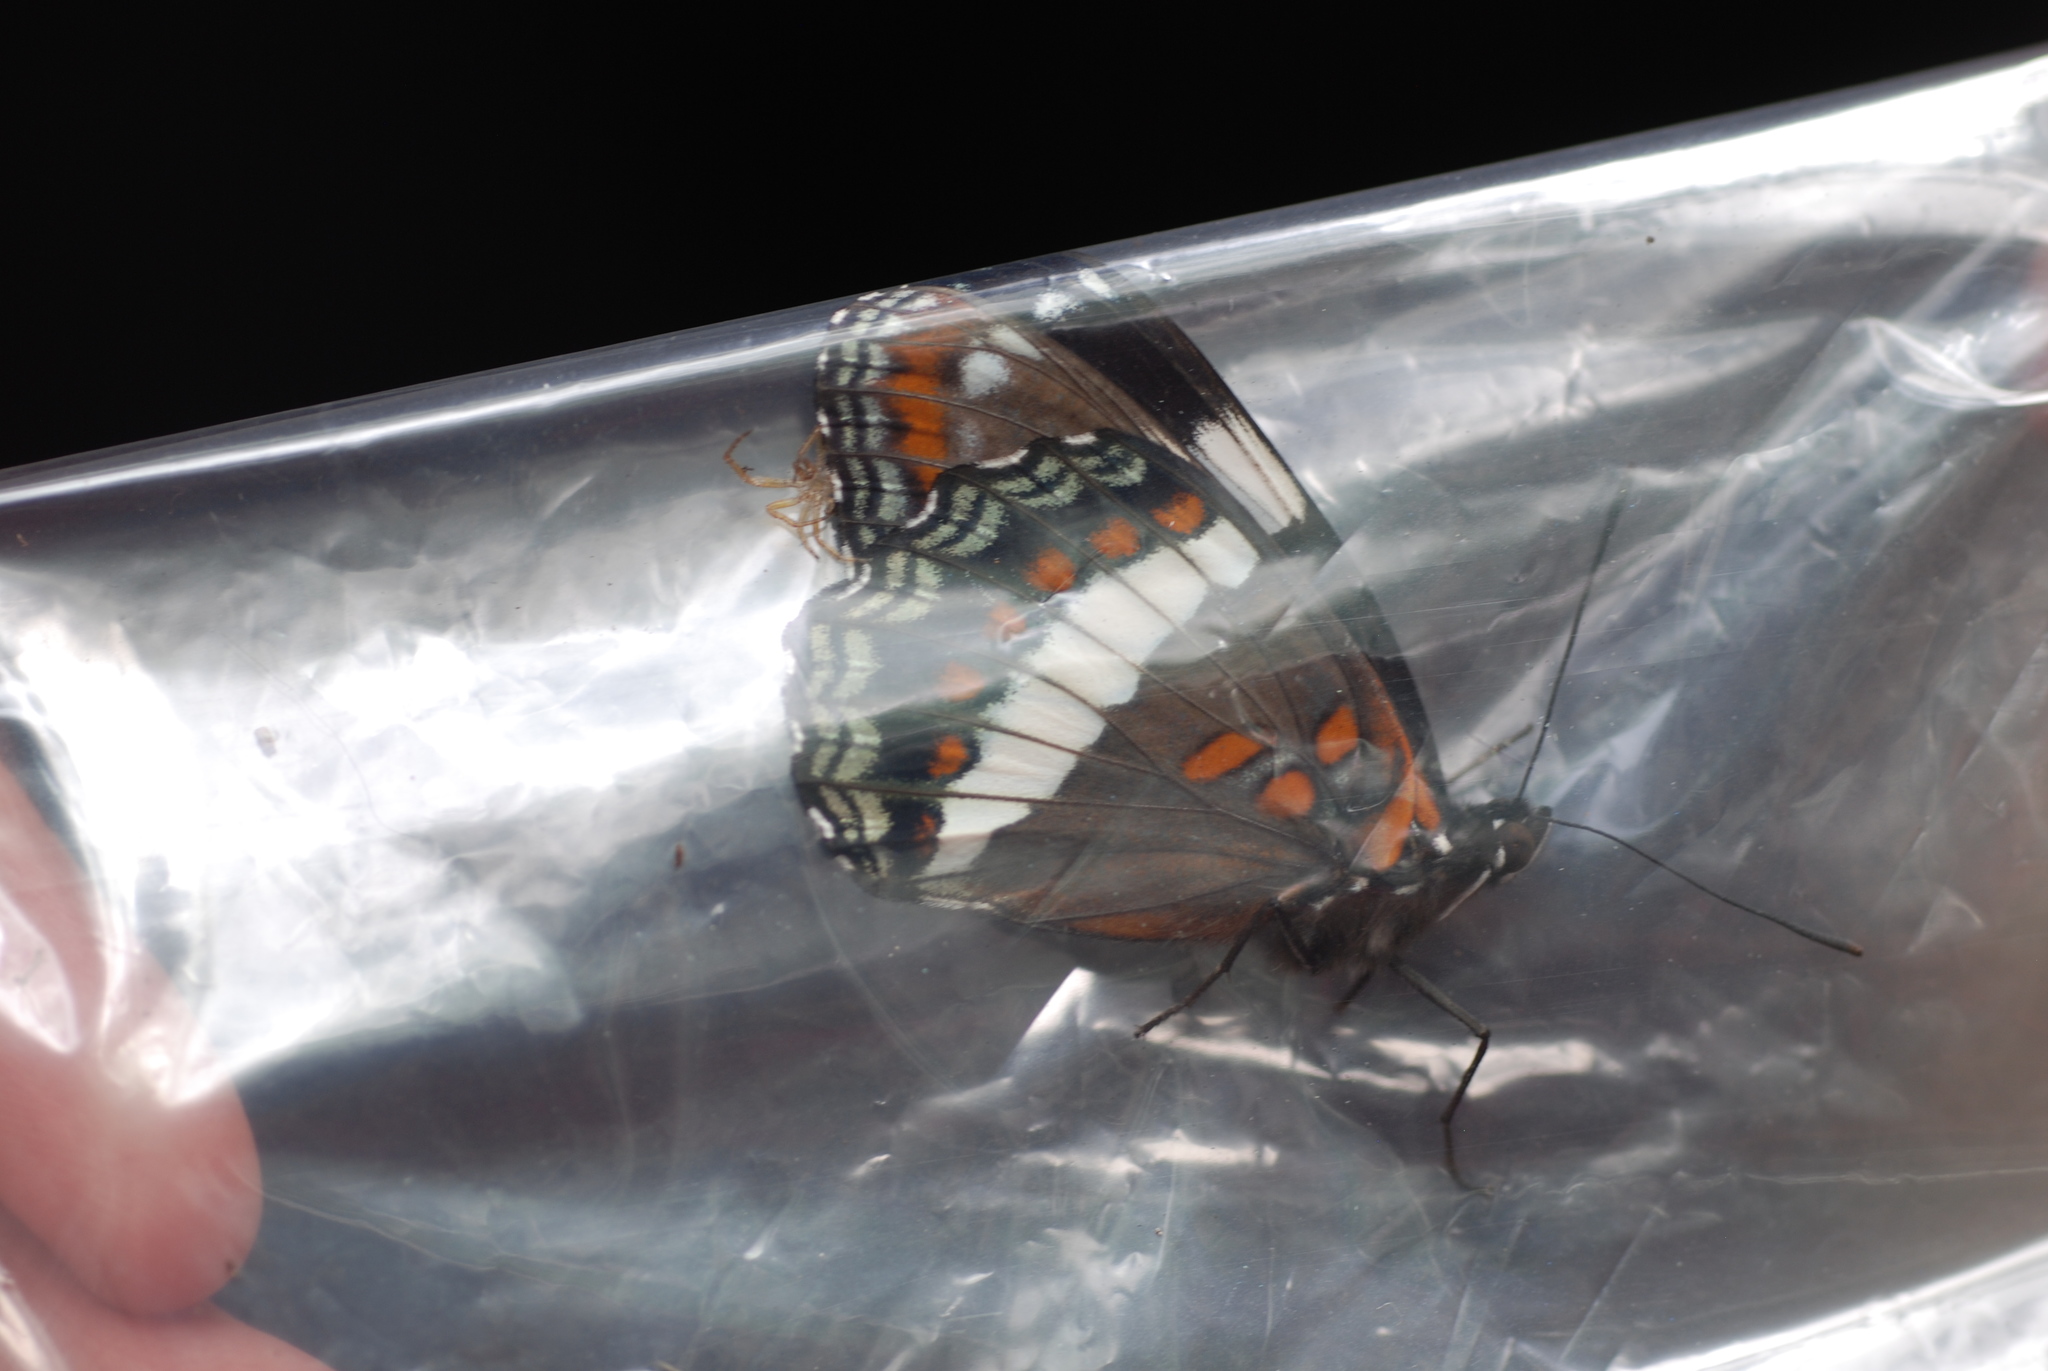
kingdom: Animalia
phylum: Arthropoda
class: Insecta
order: Lepidoptera
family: Nymphalidae
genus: Limenitis
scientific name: Limenitis arthemis
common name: Red-spotted admiral
